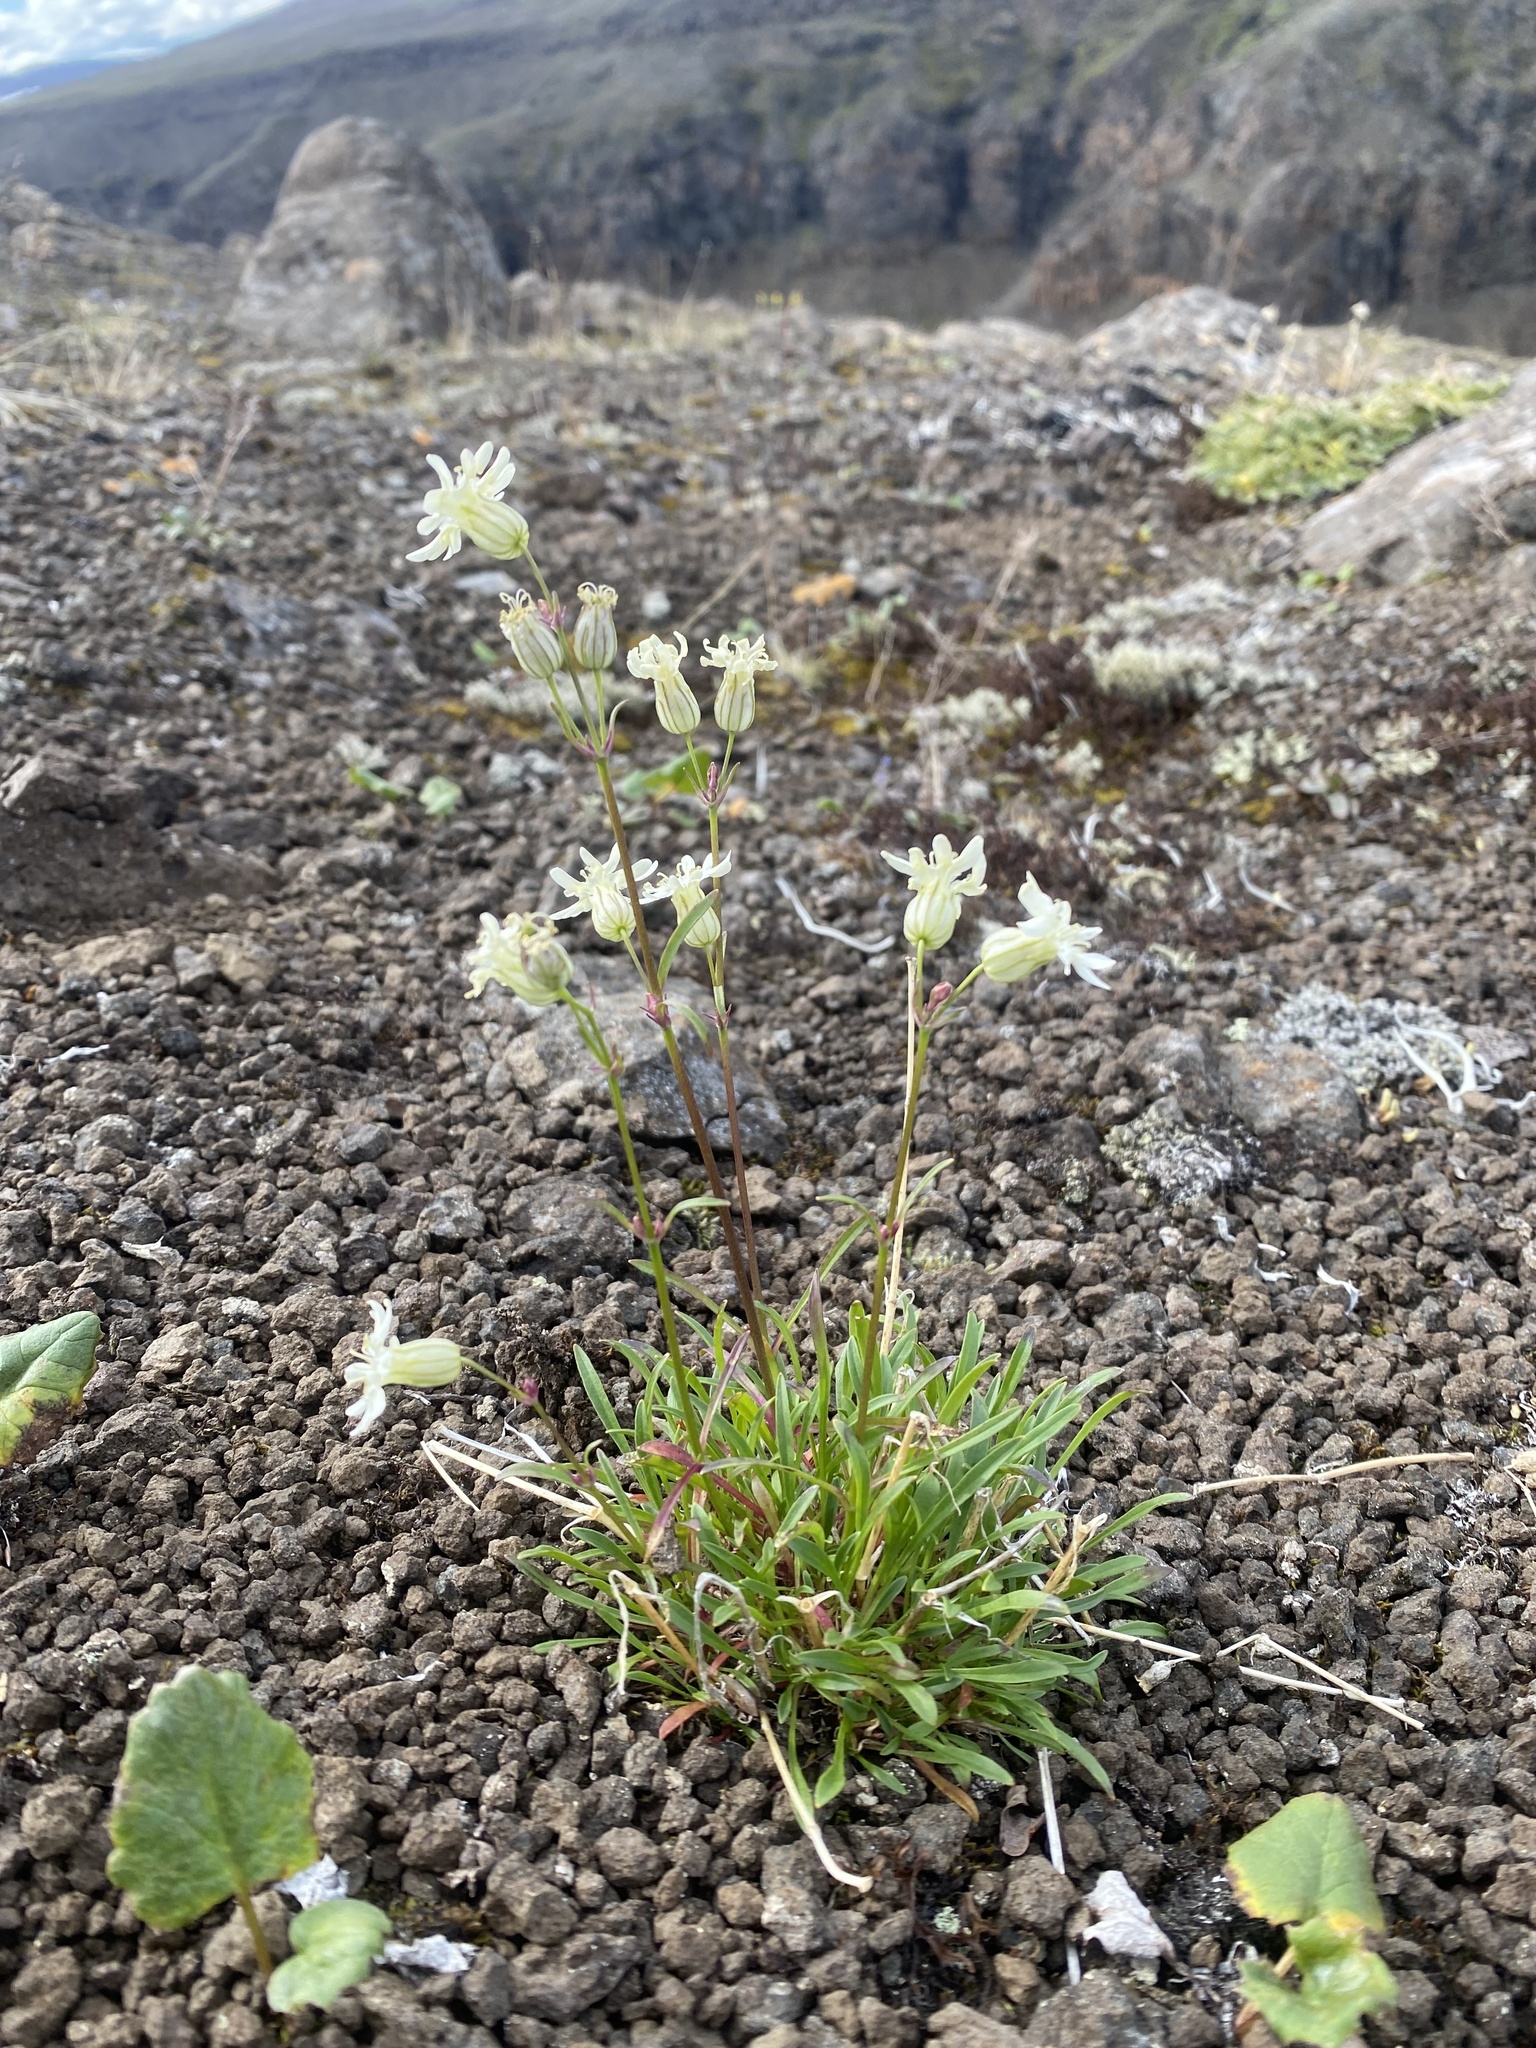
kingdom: Plantae
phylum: Tracheophyta
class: Magnoliopsida
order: Caryophyllales
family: Caryophyllaceae
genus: Silene
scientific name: Silene chamarensis
